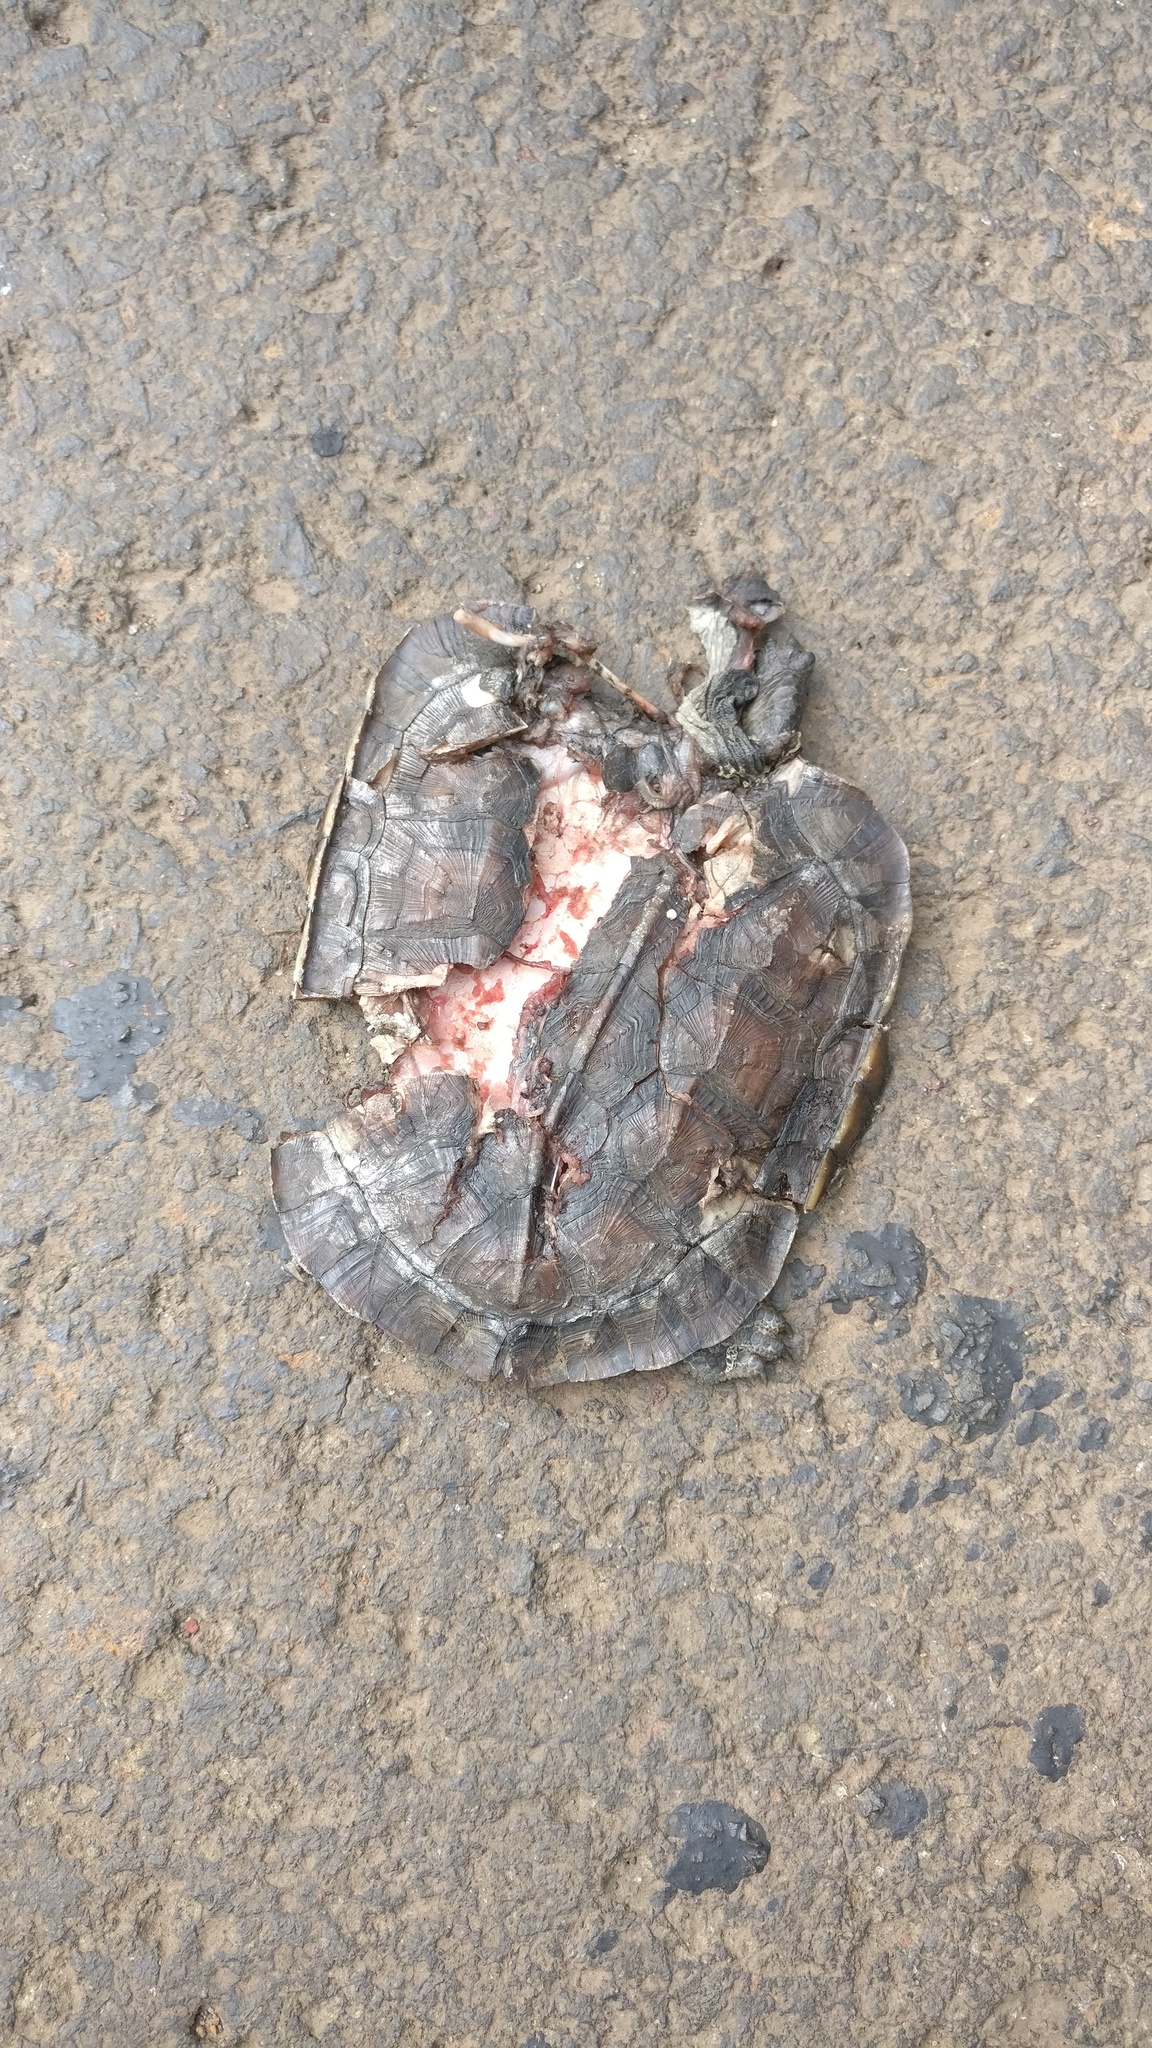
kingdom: Animalia
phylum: Chordata
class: Testudines
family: Geoemydidae
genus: Melanochelys
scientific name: Melanochelys trijuga
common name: Indian black turtle
